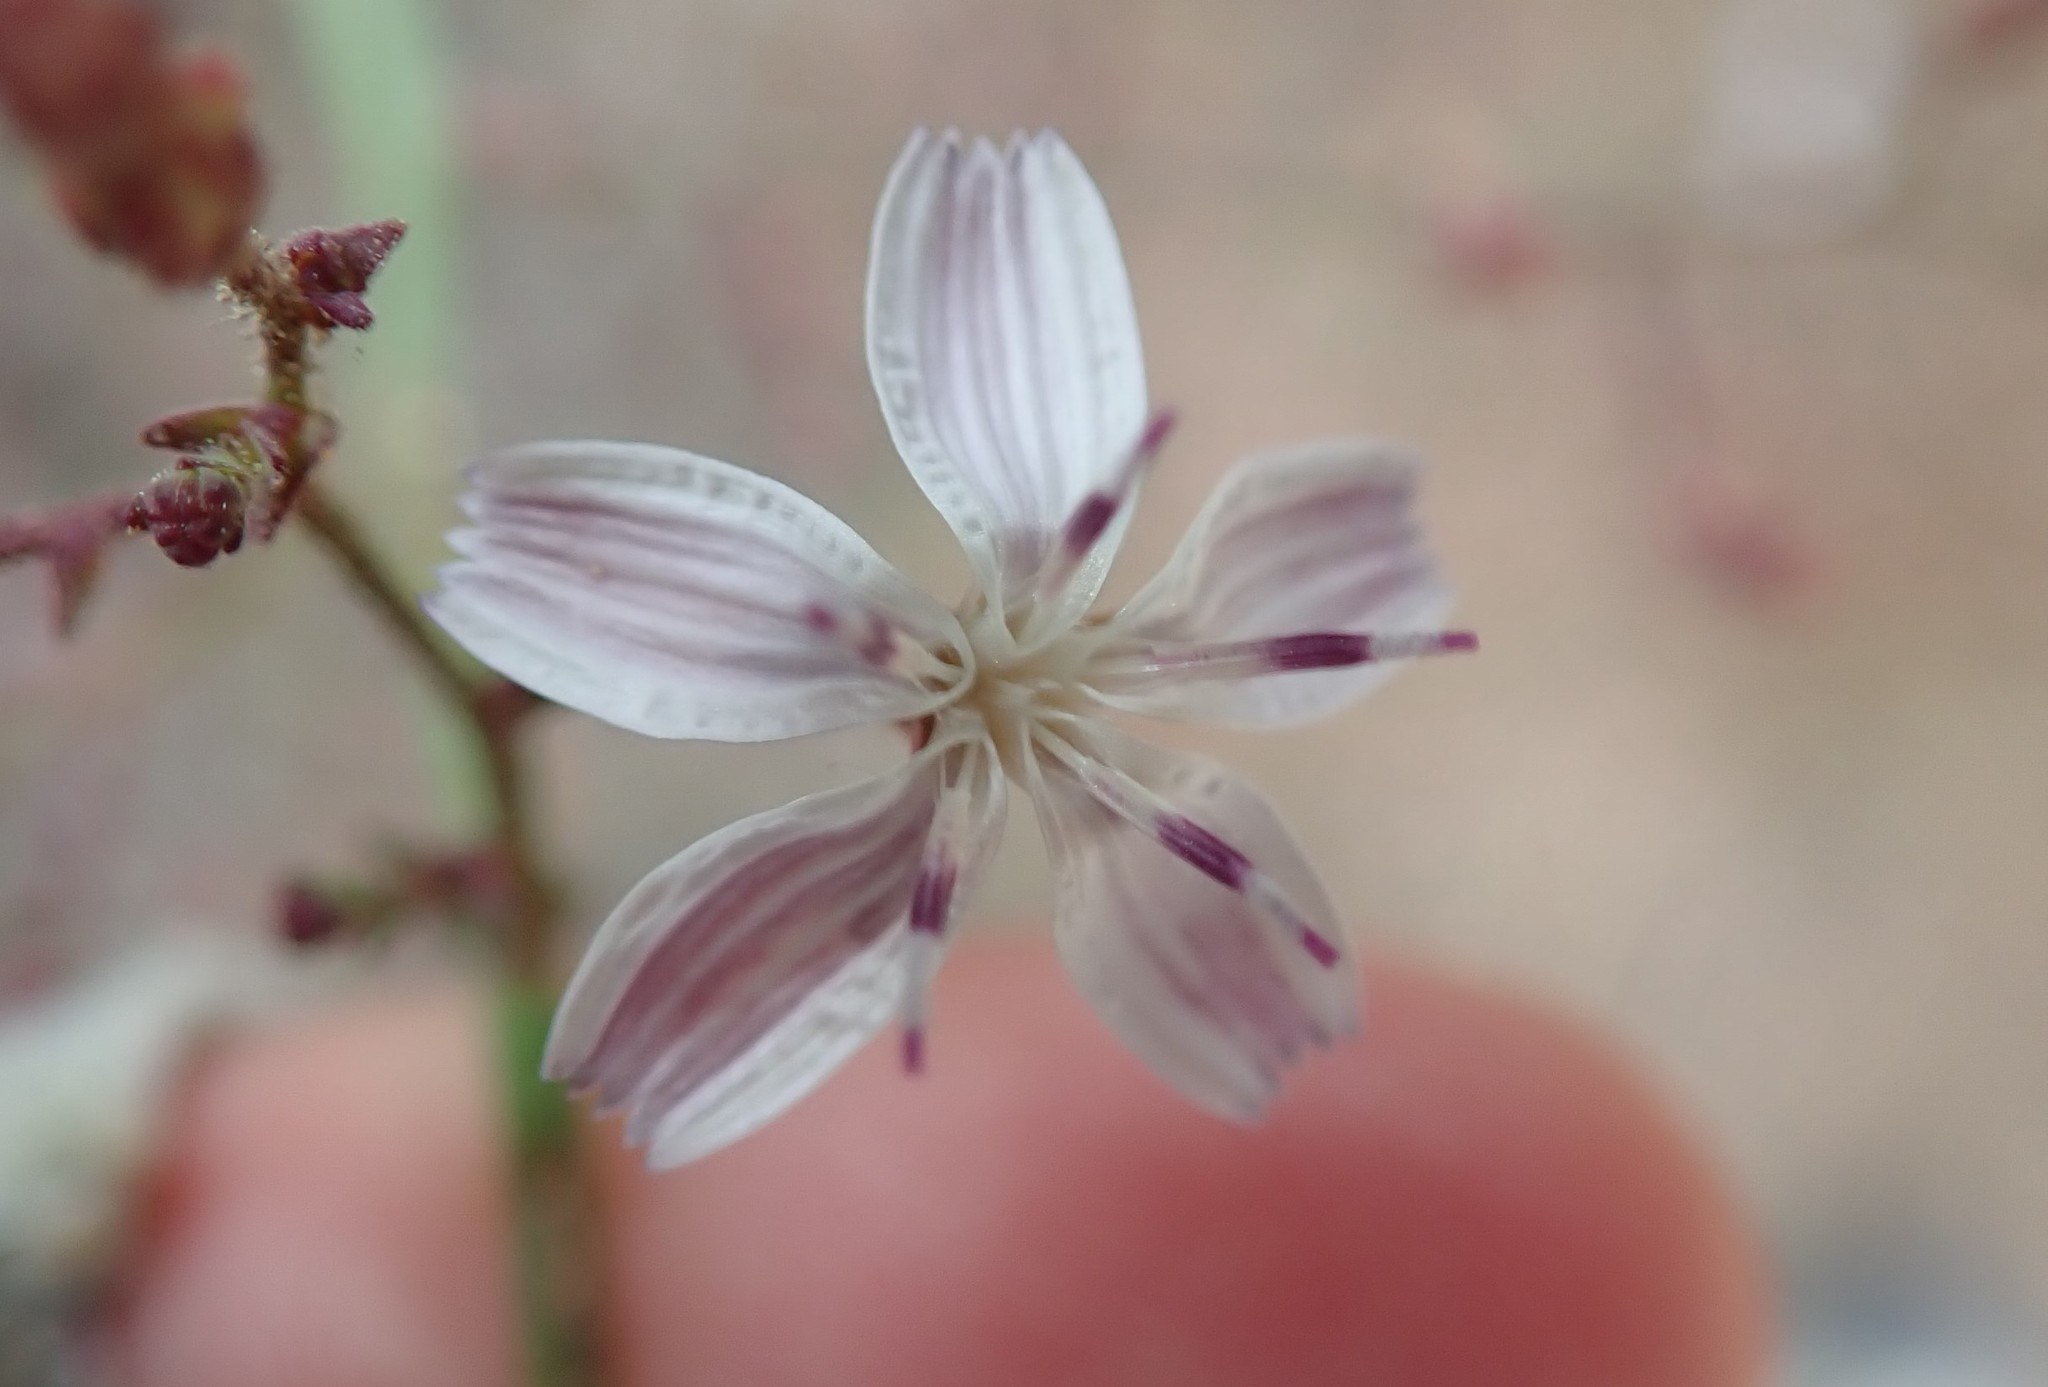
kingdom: Plantae
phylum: Tracheophyta
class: Magnoliopsida
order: Asterales
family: Asteraceae
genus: Stephanomeria
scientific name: Stephanomeria exigua
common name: Small wirelettuce
